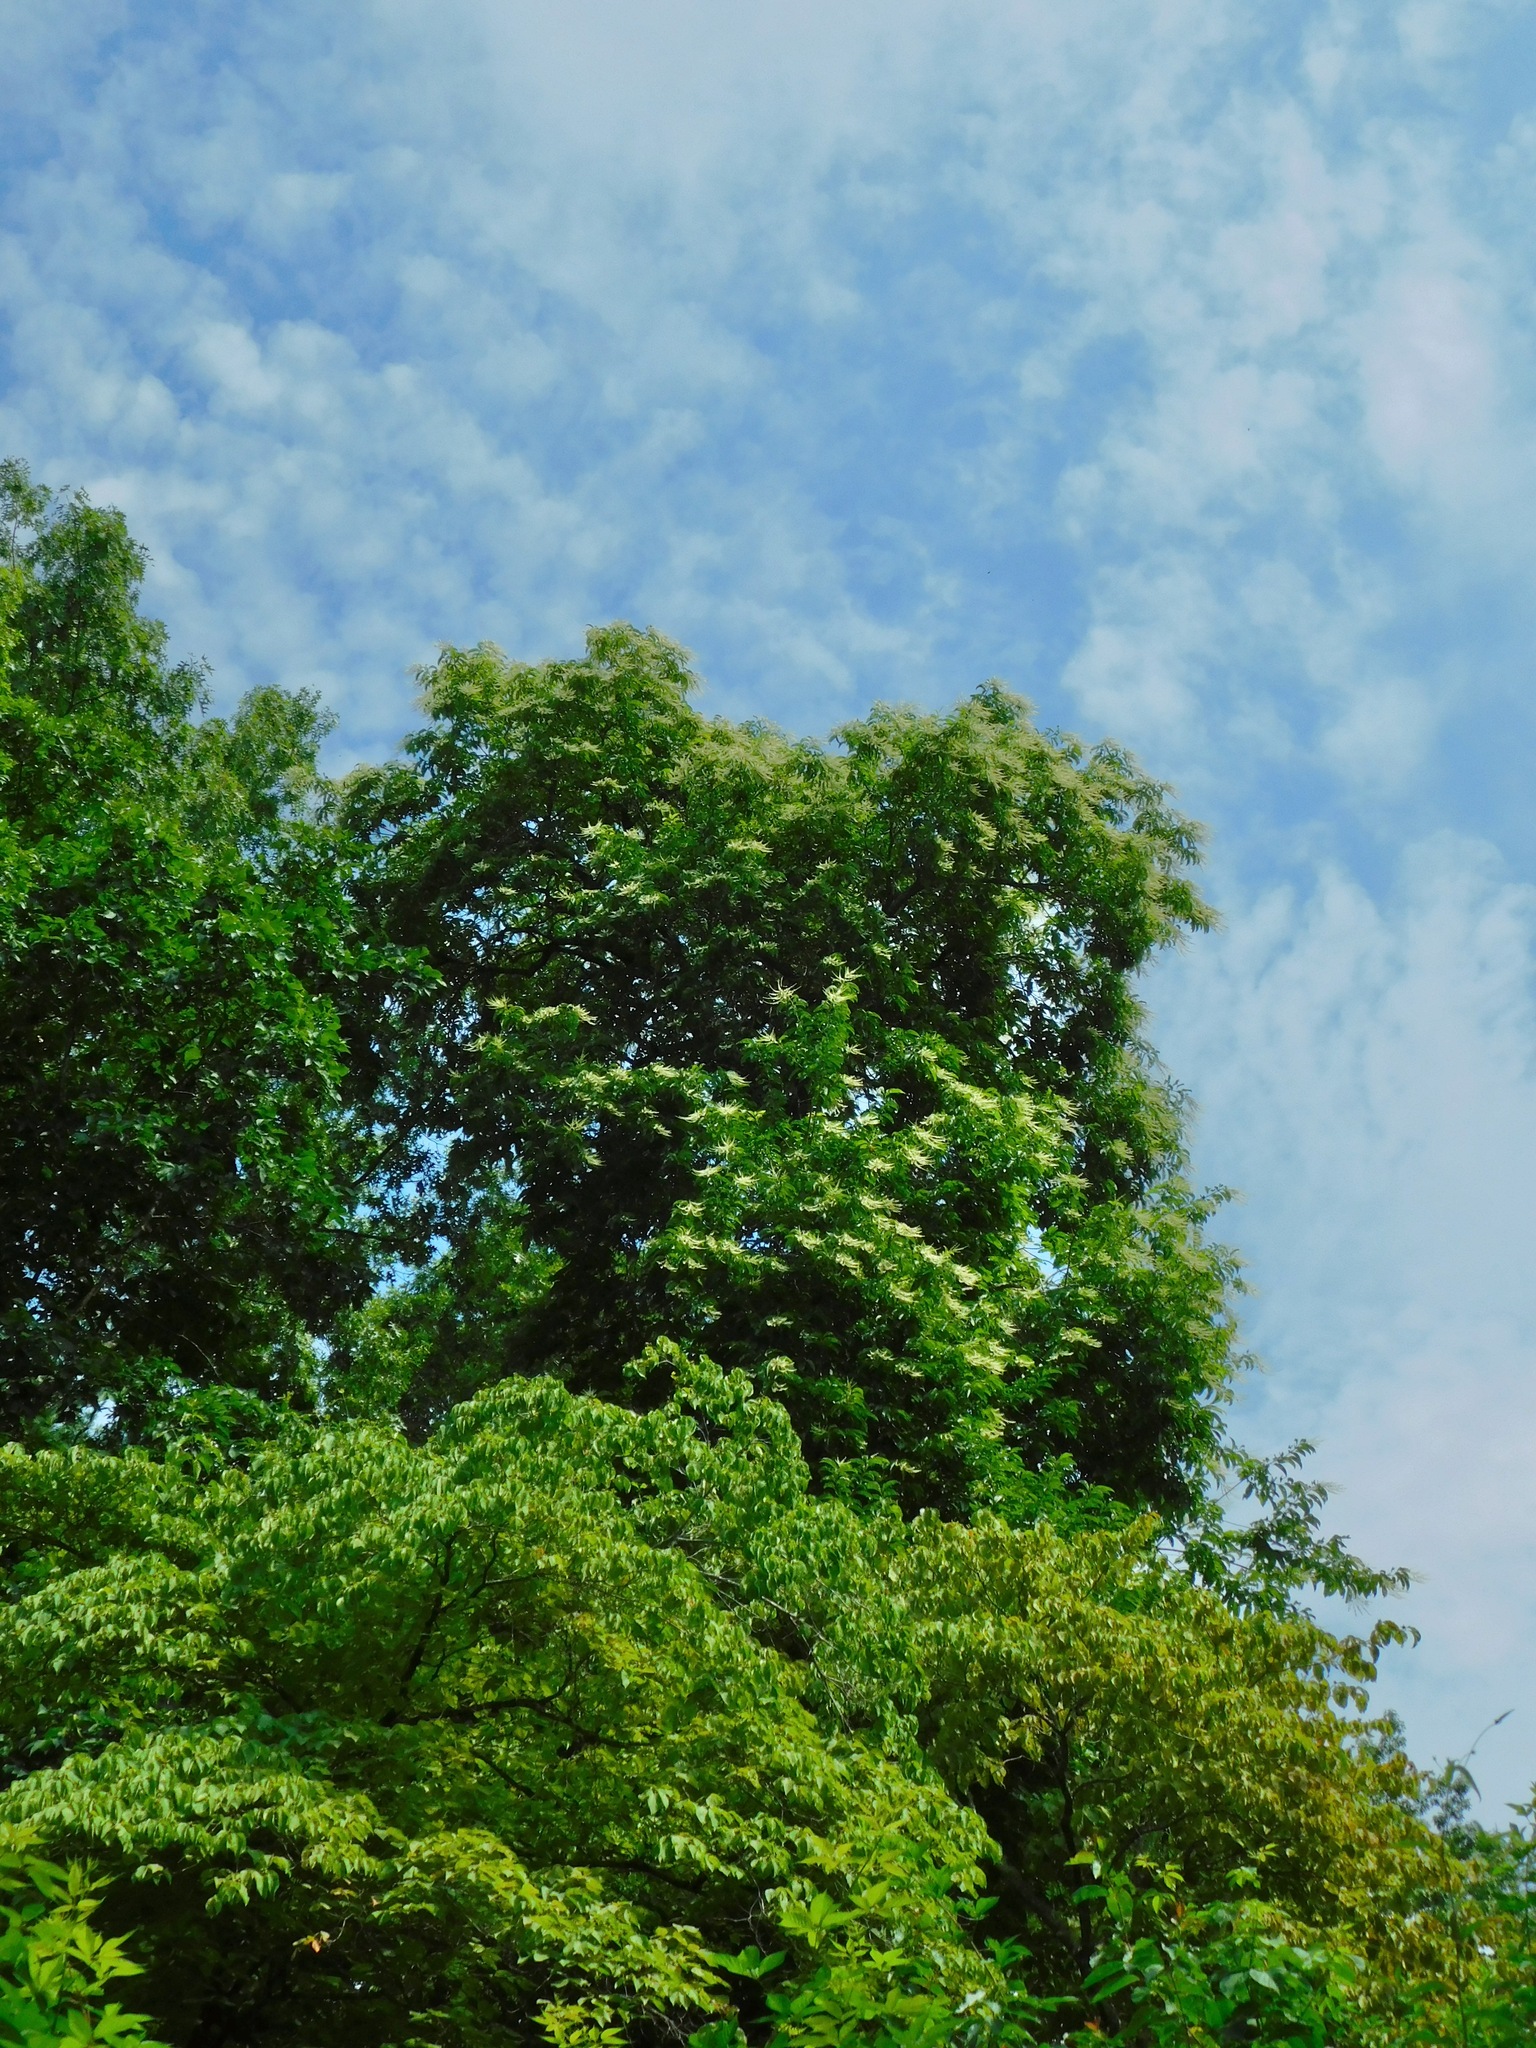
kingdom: Plantae
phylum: Tracheophyta
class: Magnoliopsida
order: Ericales
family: Ericaceae
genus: Oxydendrum
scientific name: Oxydendrum arboreum
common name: Sourwood
